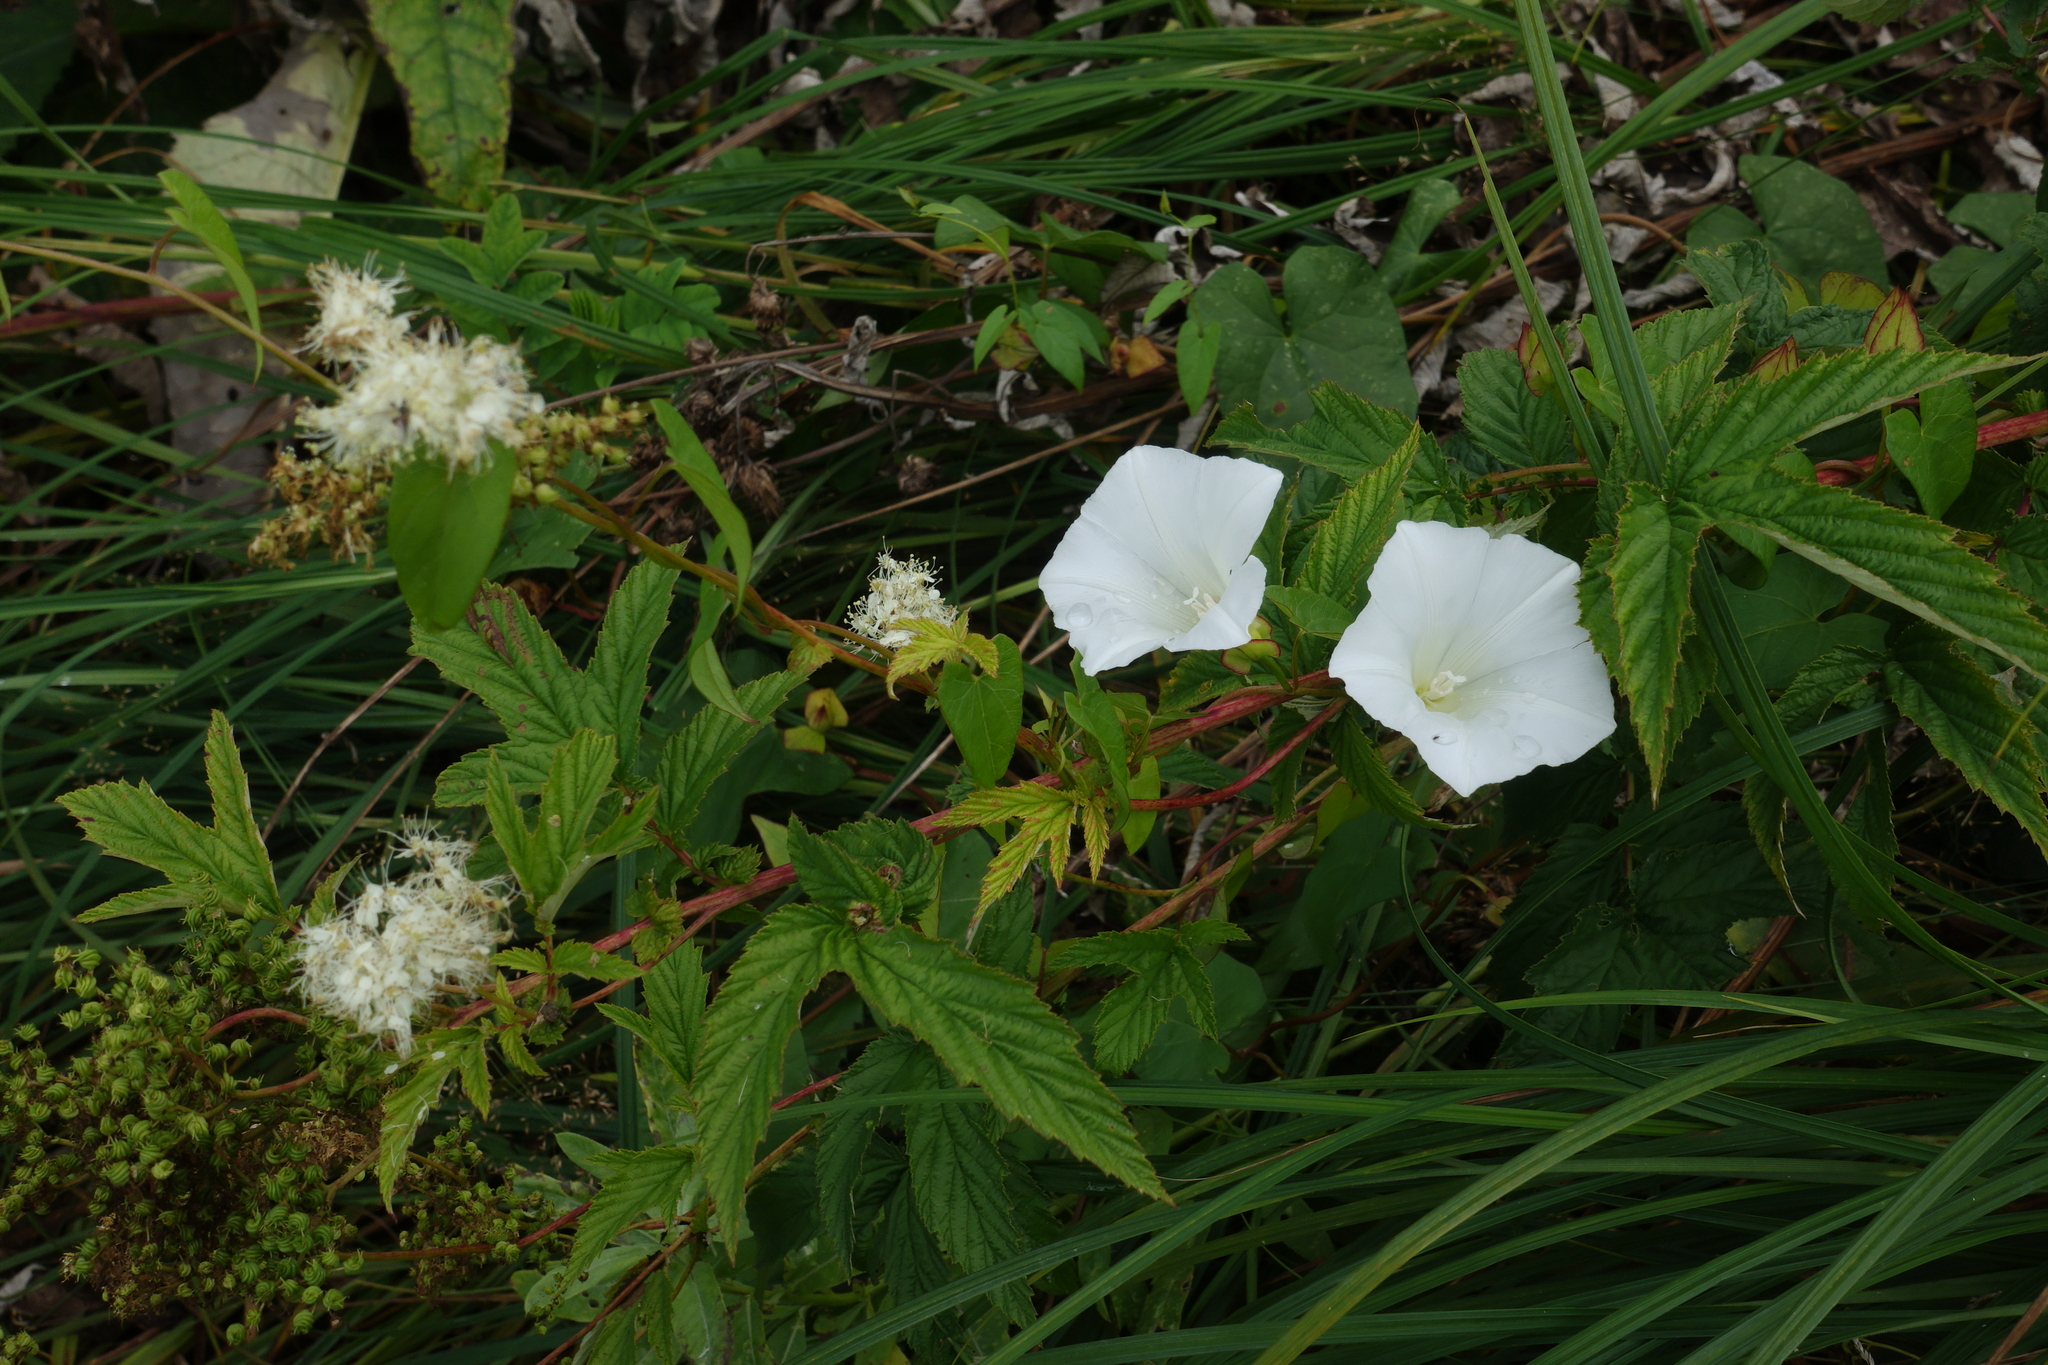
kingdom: Plantae
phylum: Tracheophyta
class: Magnoliopsida
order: Solanales
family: Convolvulaceae
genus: Calystegia
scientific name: Calystegia sepium
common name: Hedge bindweed
